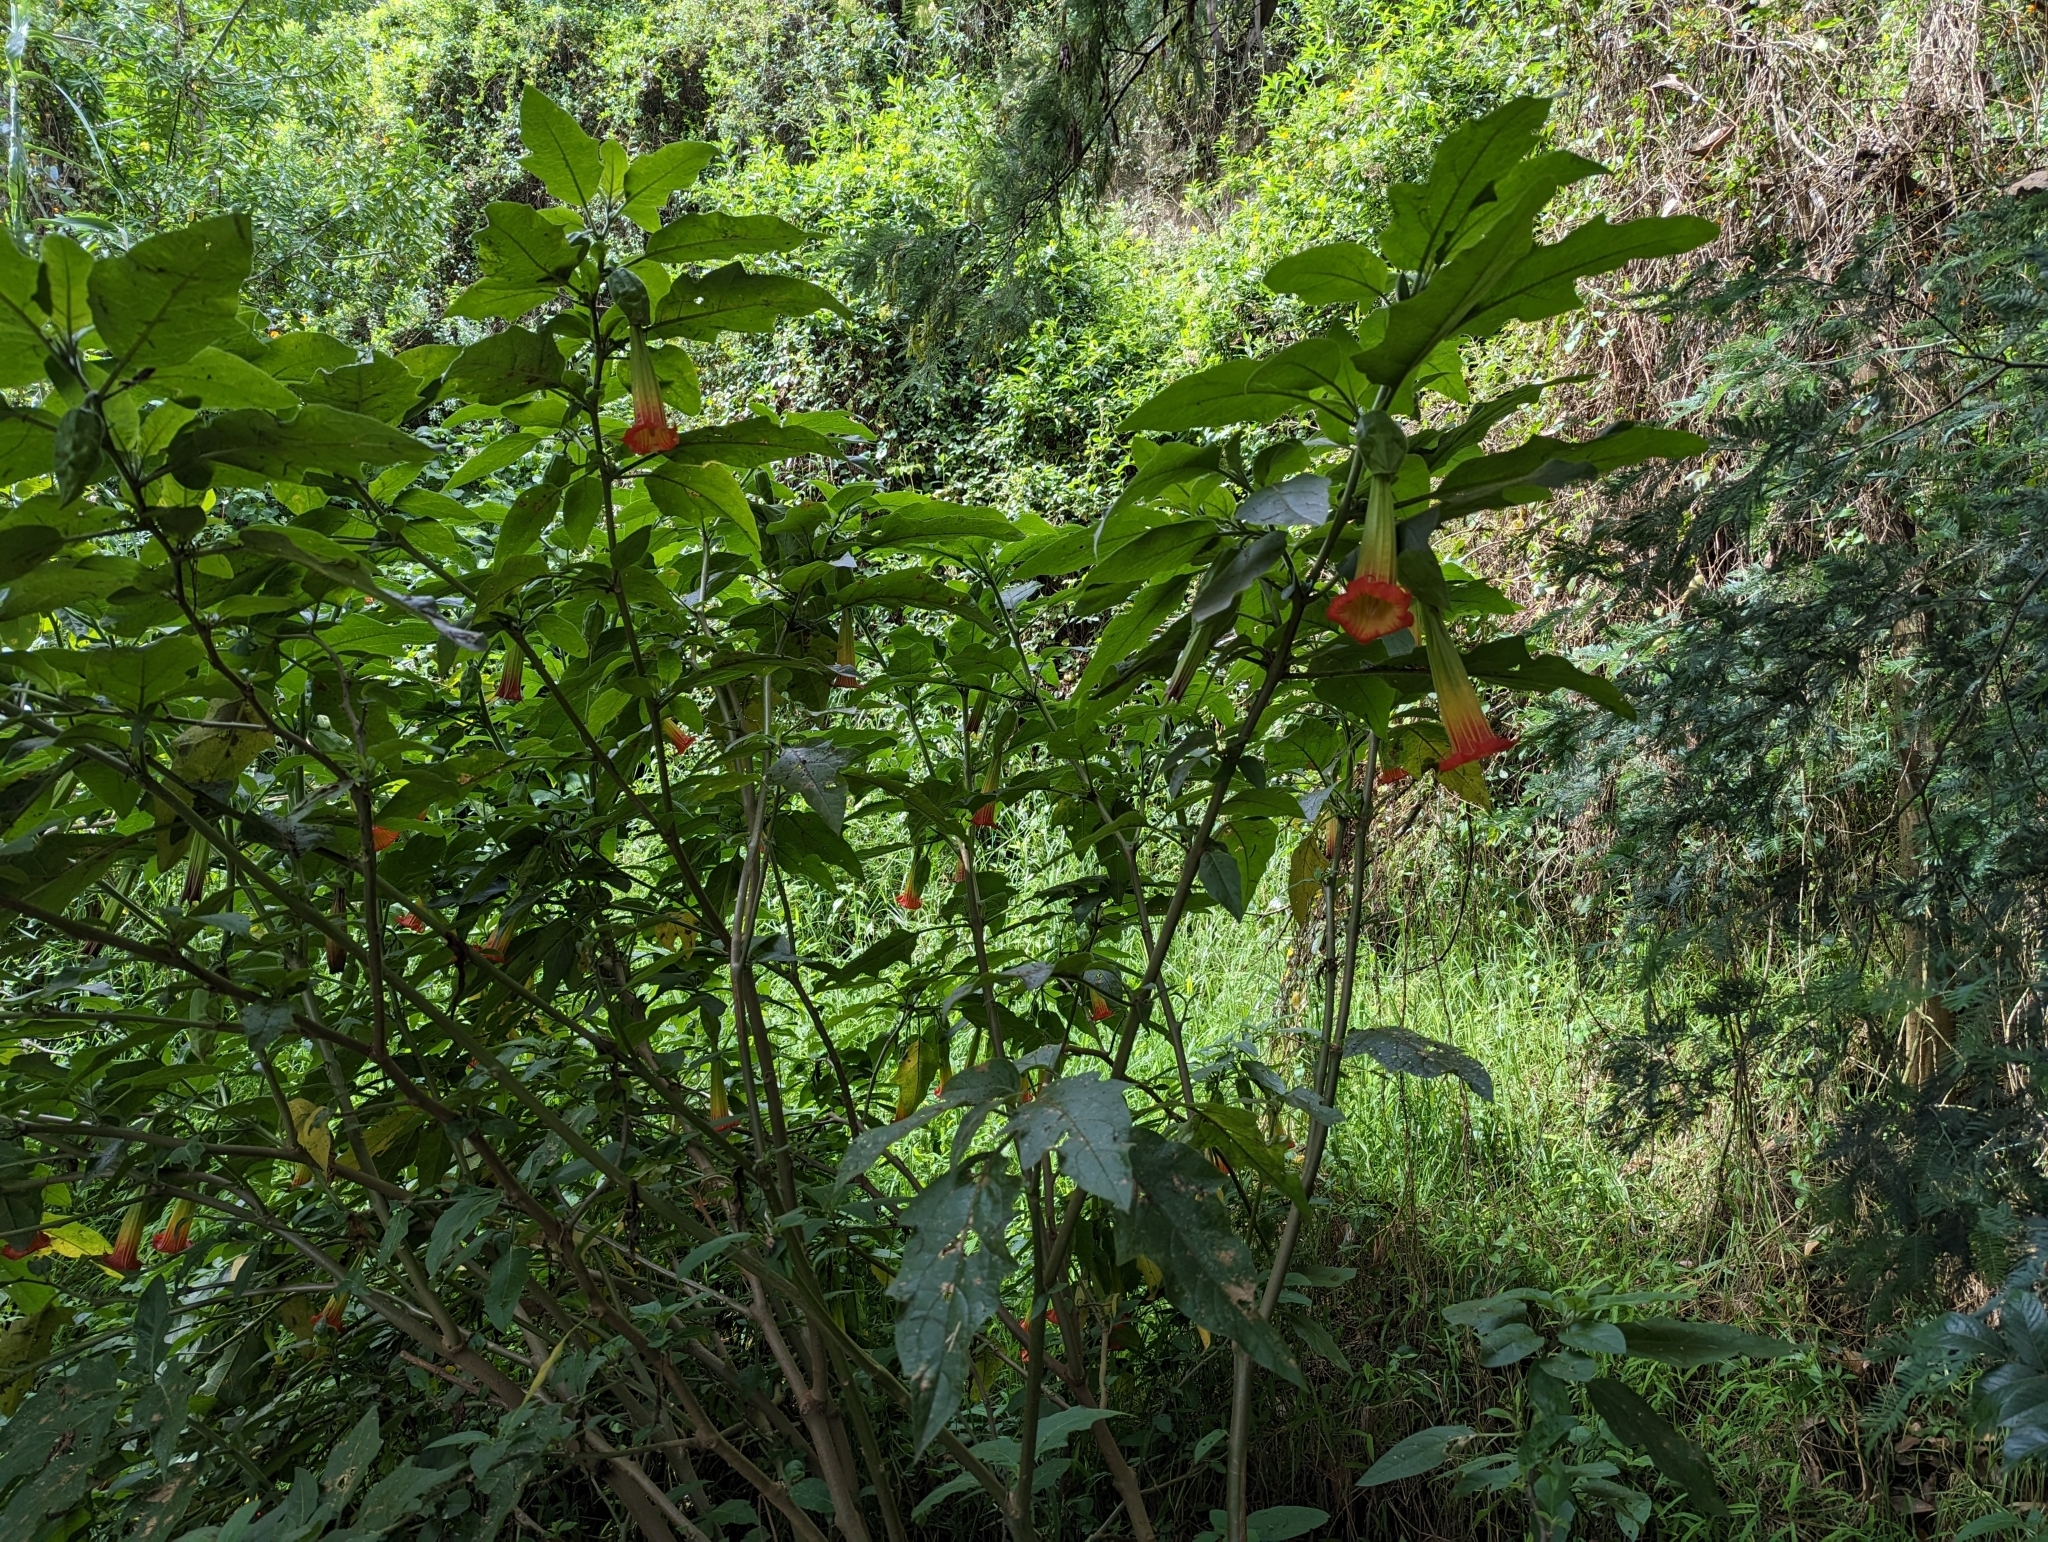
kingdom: Plantae
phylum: Tracheophyta
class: Magnoliopsida
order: Solanales
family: Solanaceae
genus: Brugmansia
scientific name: Brugmansia sanguinea
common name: Red floripontio
